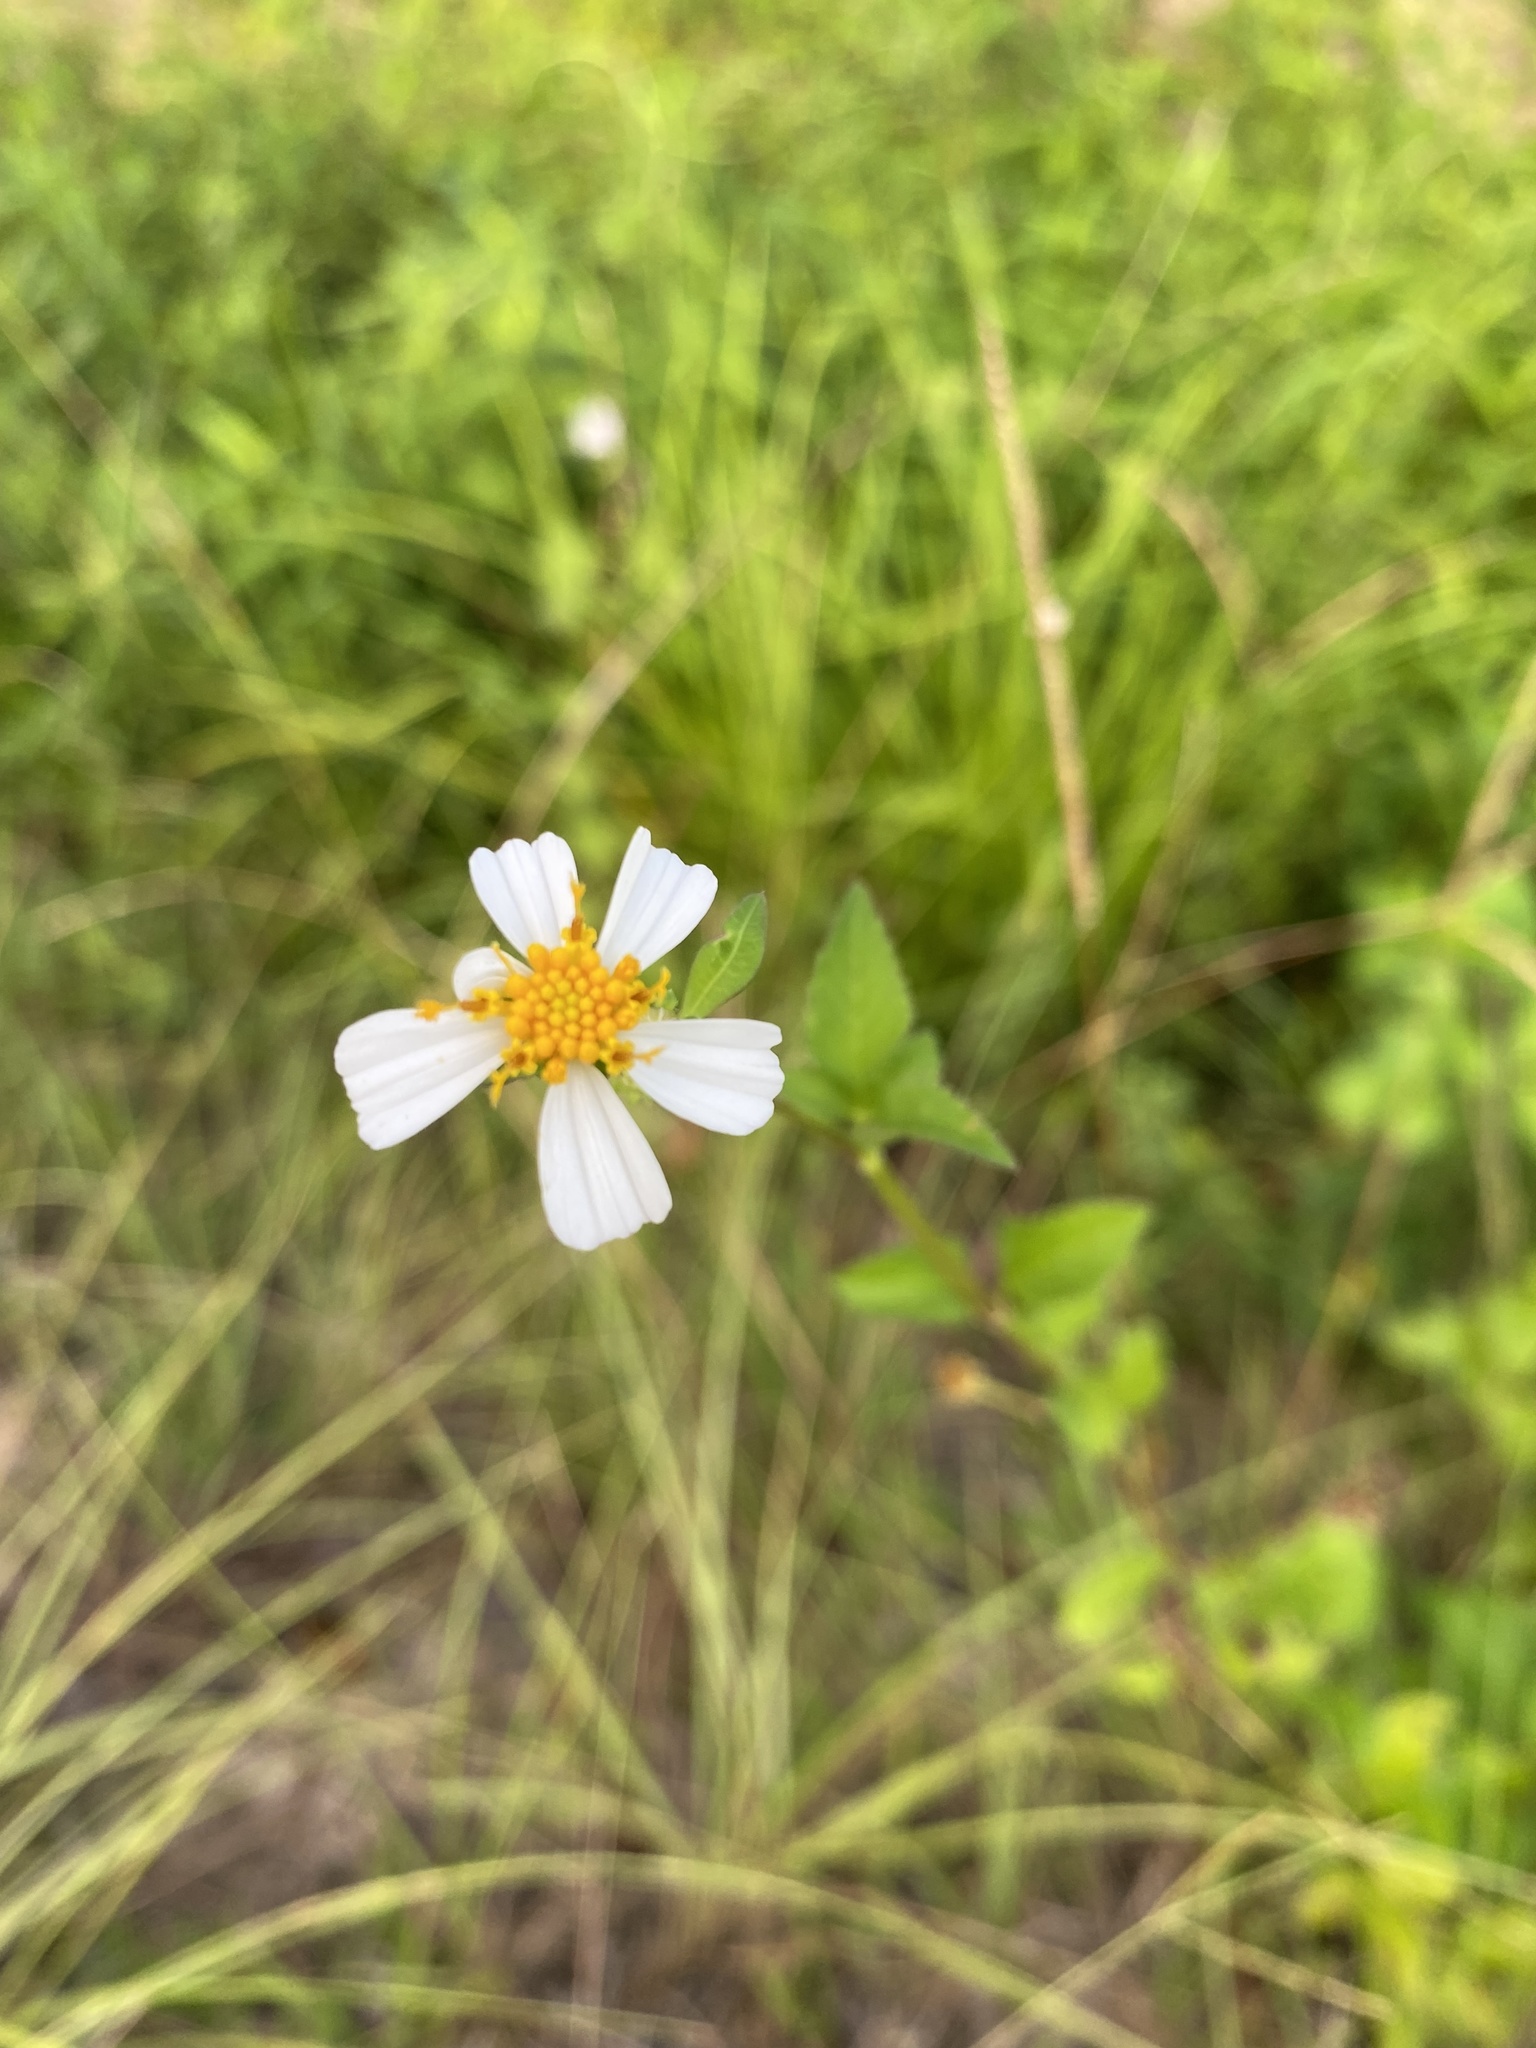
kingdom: Plantae
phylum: Tracheophyta
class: Magnoliopsida
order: Asterales
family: Asteraceae
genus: Bidens
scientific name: Bidens alba
